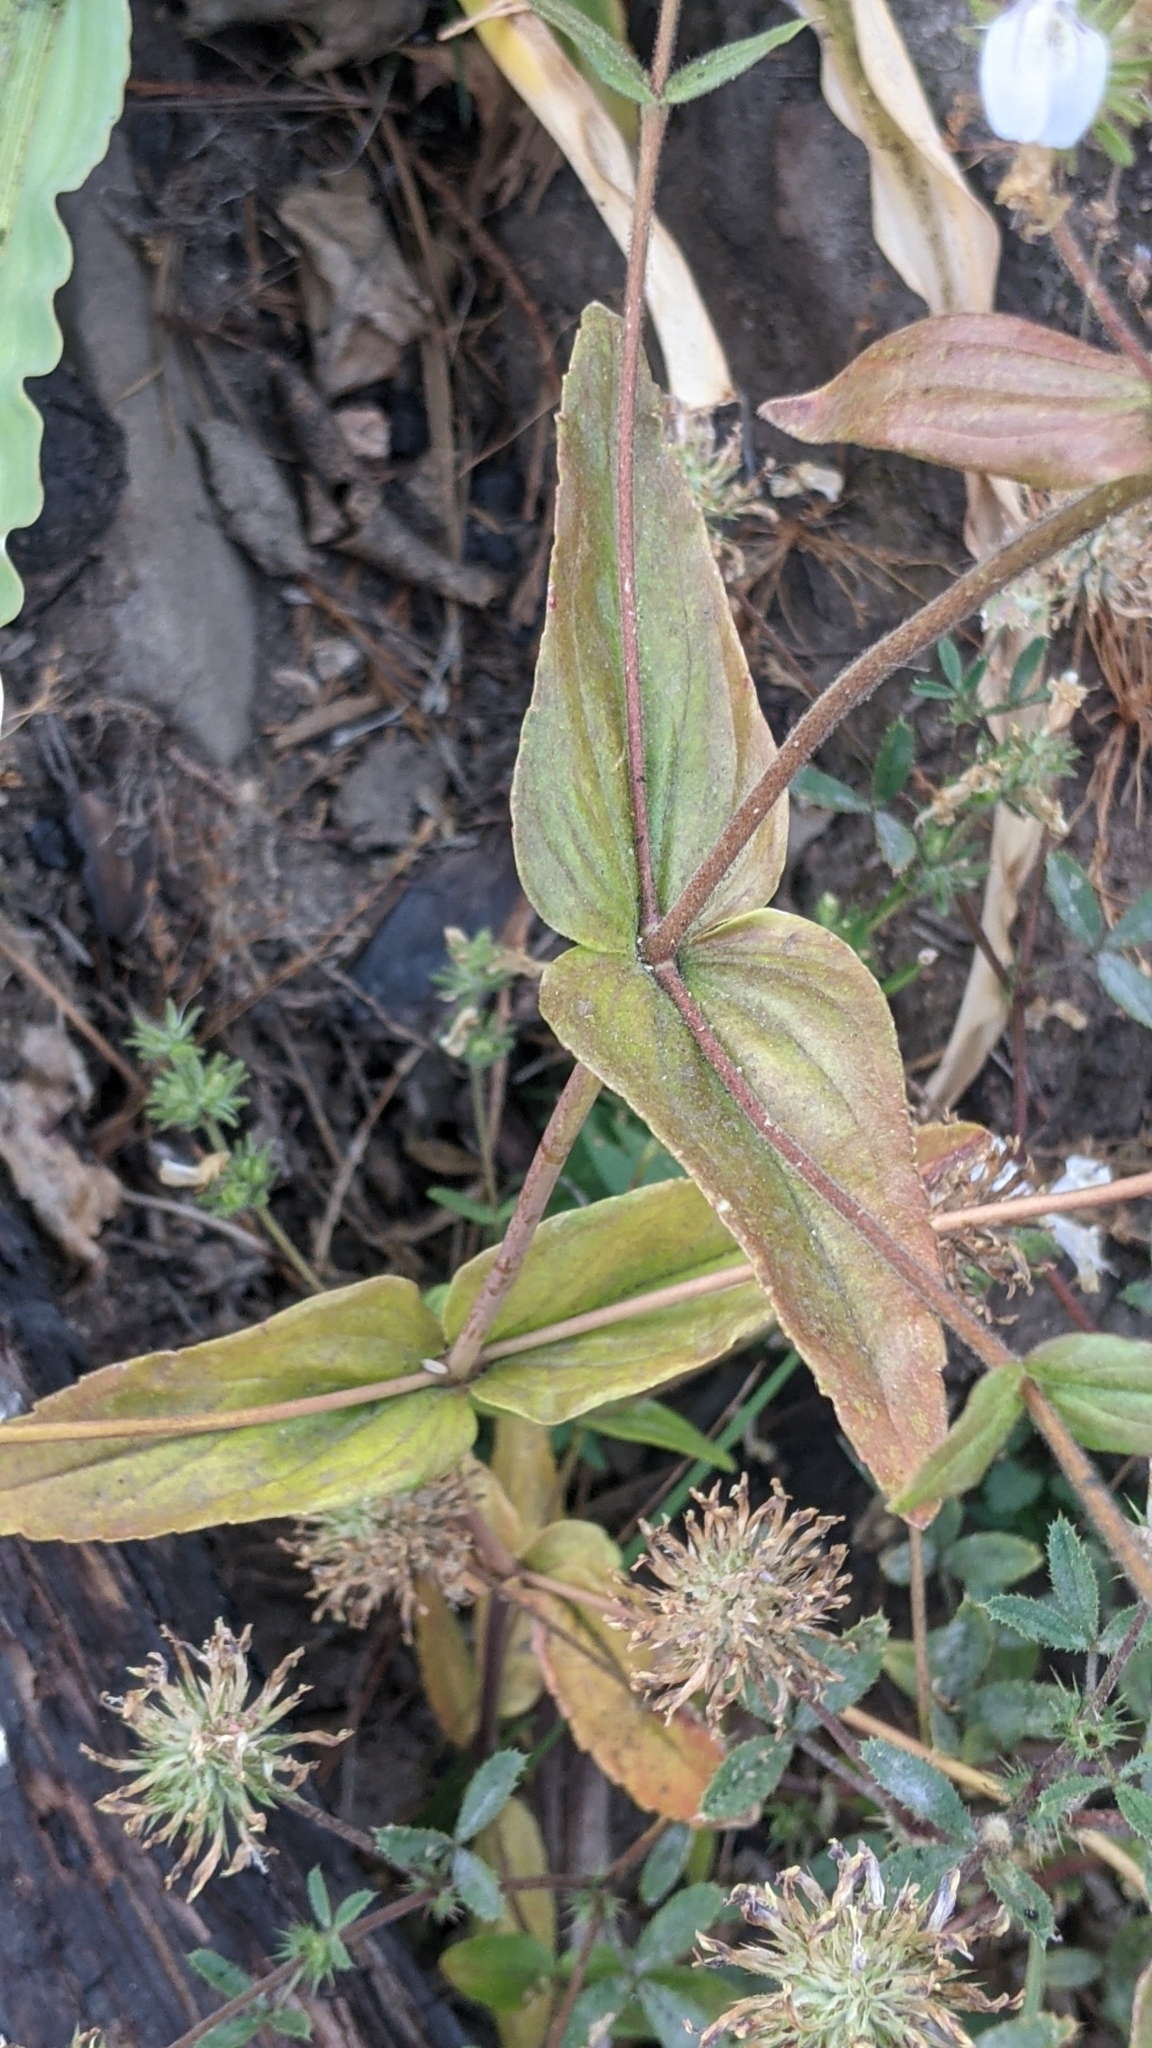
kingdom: Plantae
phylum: Tracheophyta
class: Magnoliopsida
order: Lamiales
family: Plantaginaceae
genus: Collinsia
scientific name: Collinsia tinctoria
